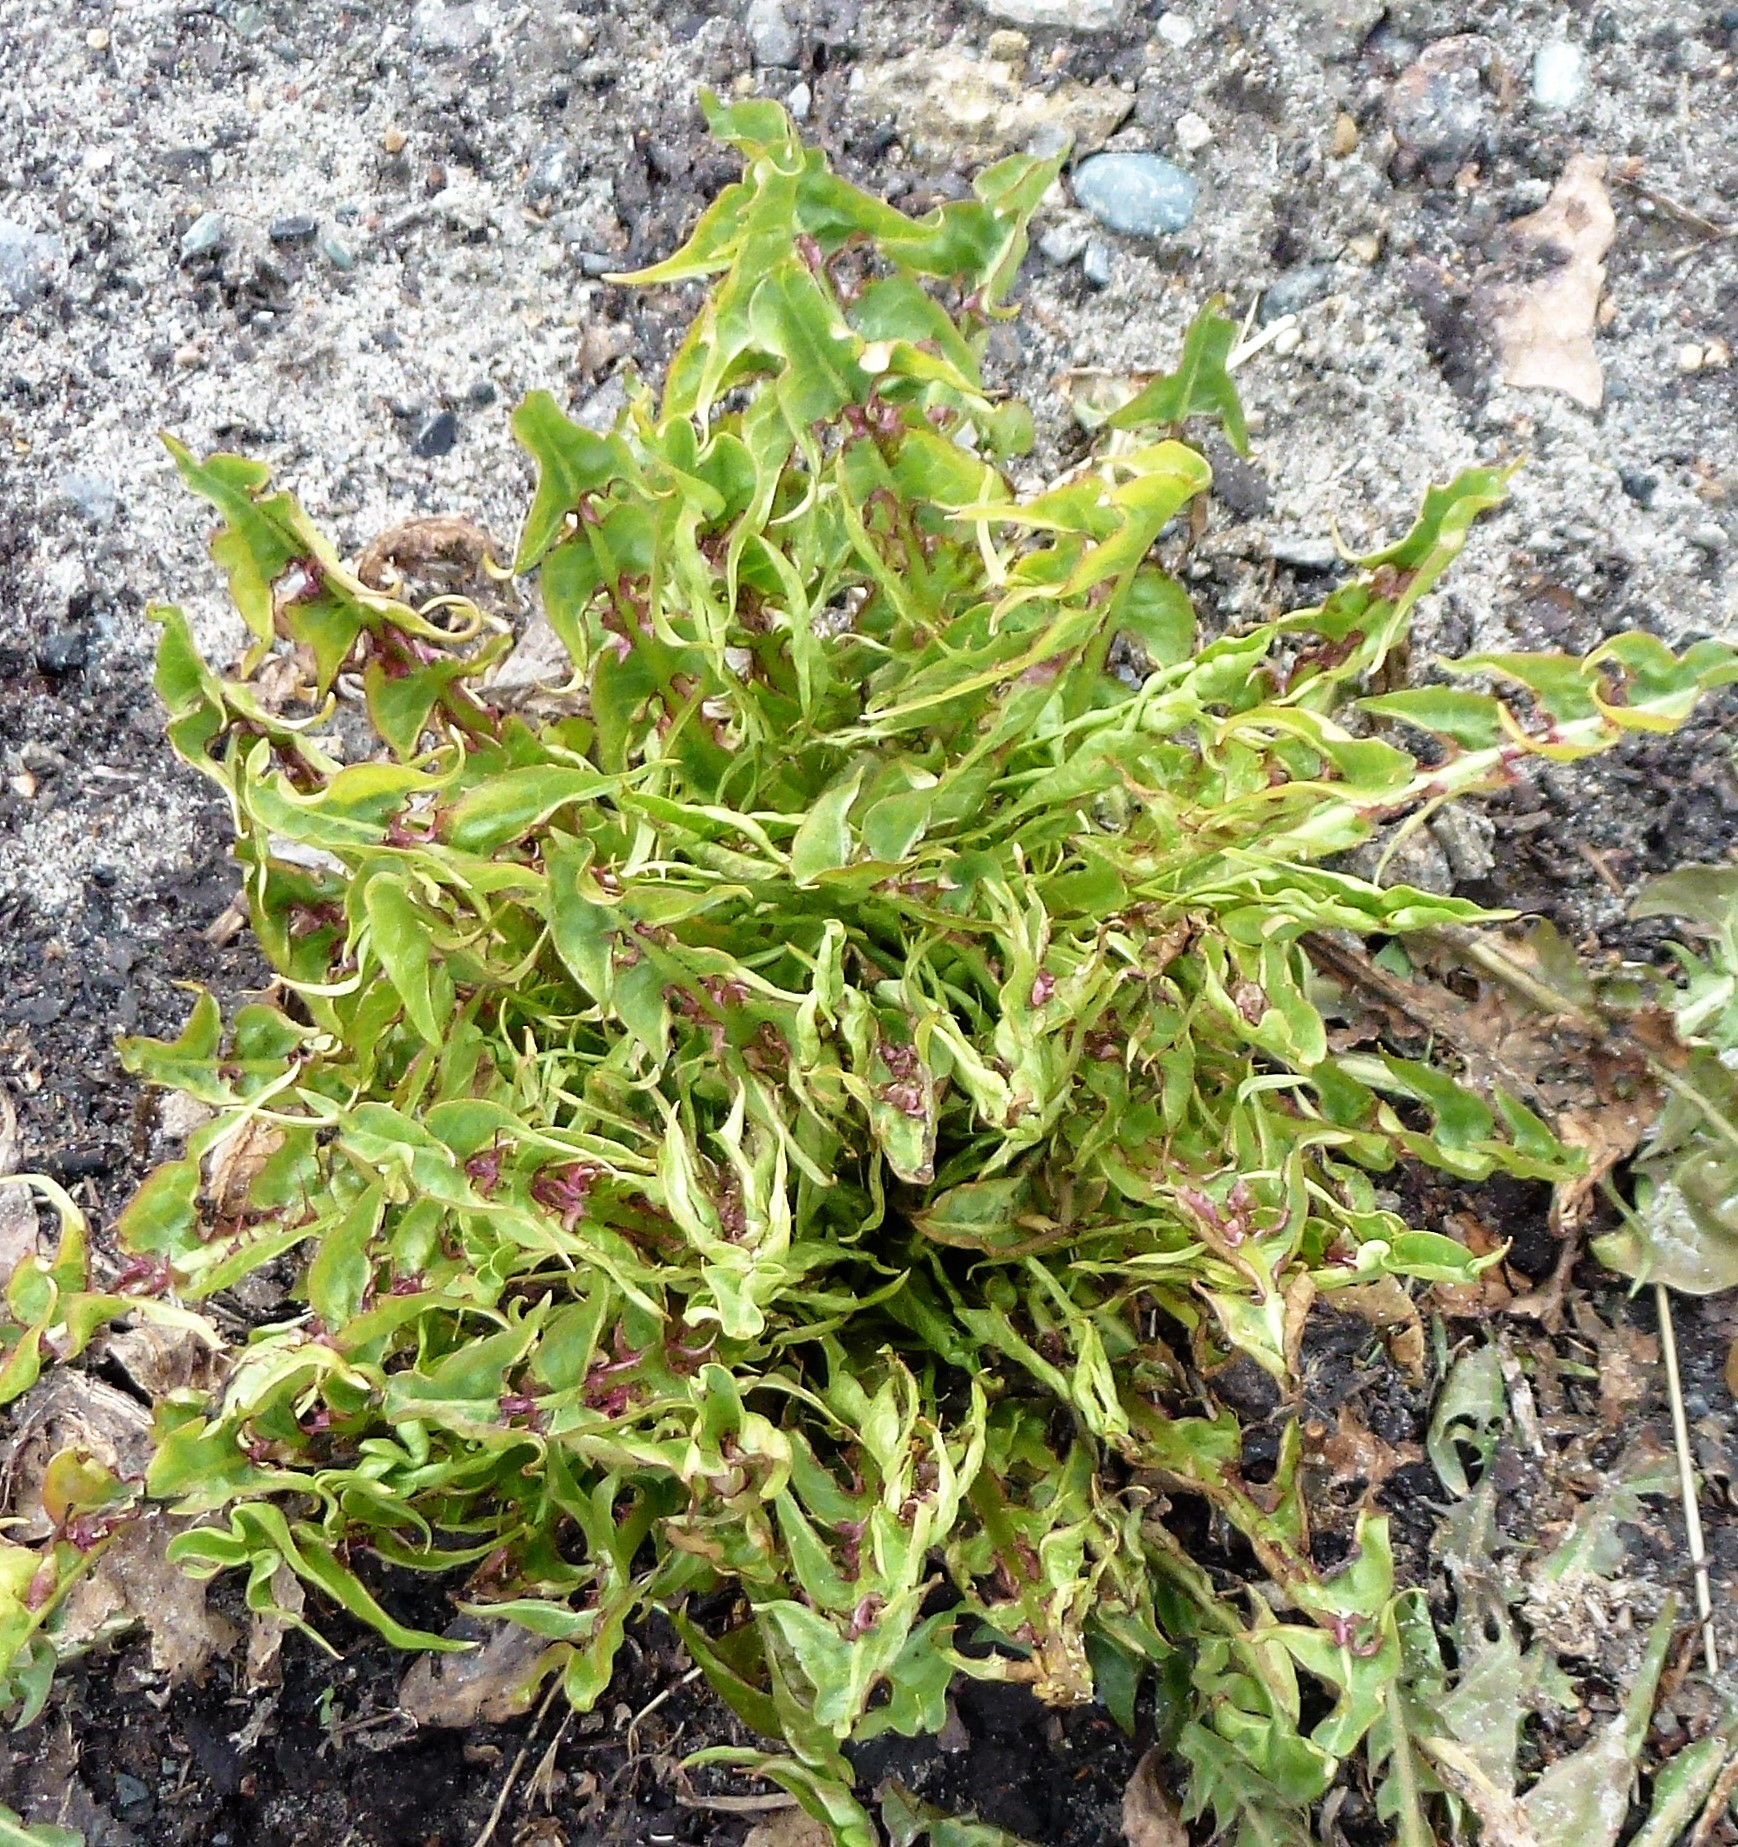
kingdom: Plantae
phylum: Tracheophyta
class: Magnoliopsida
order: Asterales
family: Asteraceae
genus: Taraxacum
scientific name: Taraxacum officinale
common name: Common dandelion
